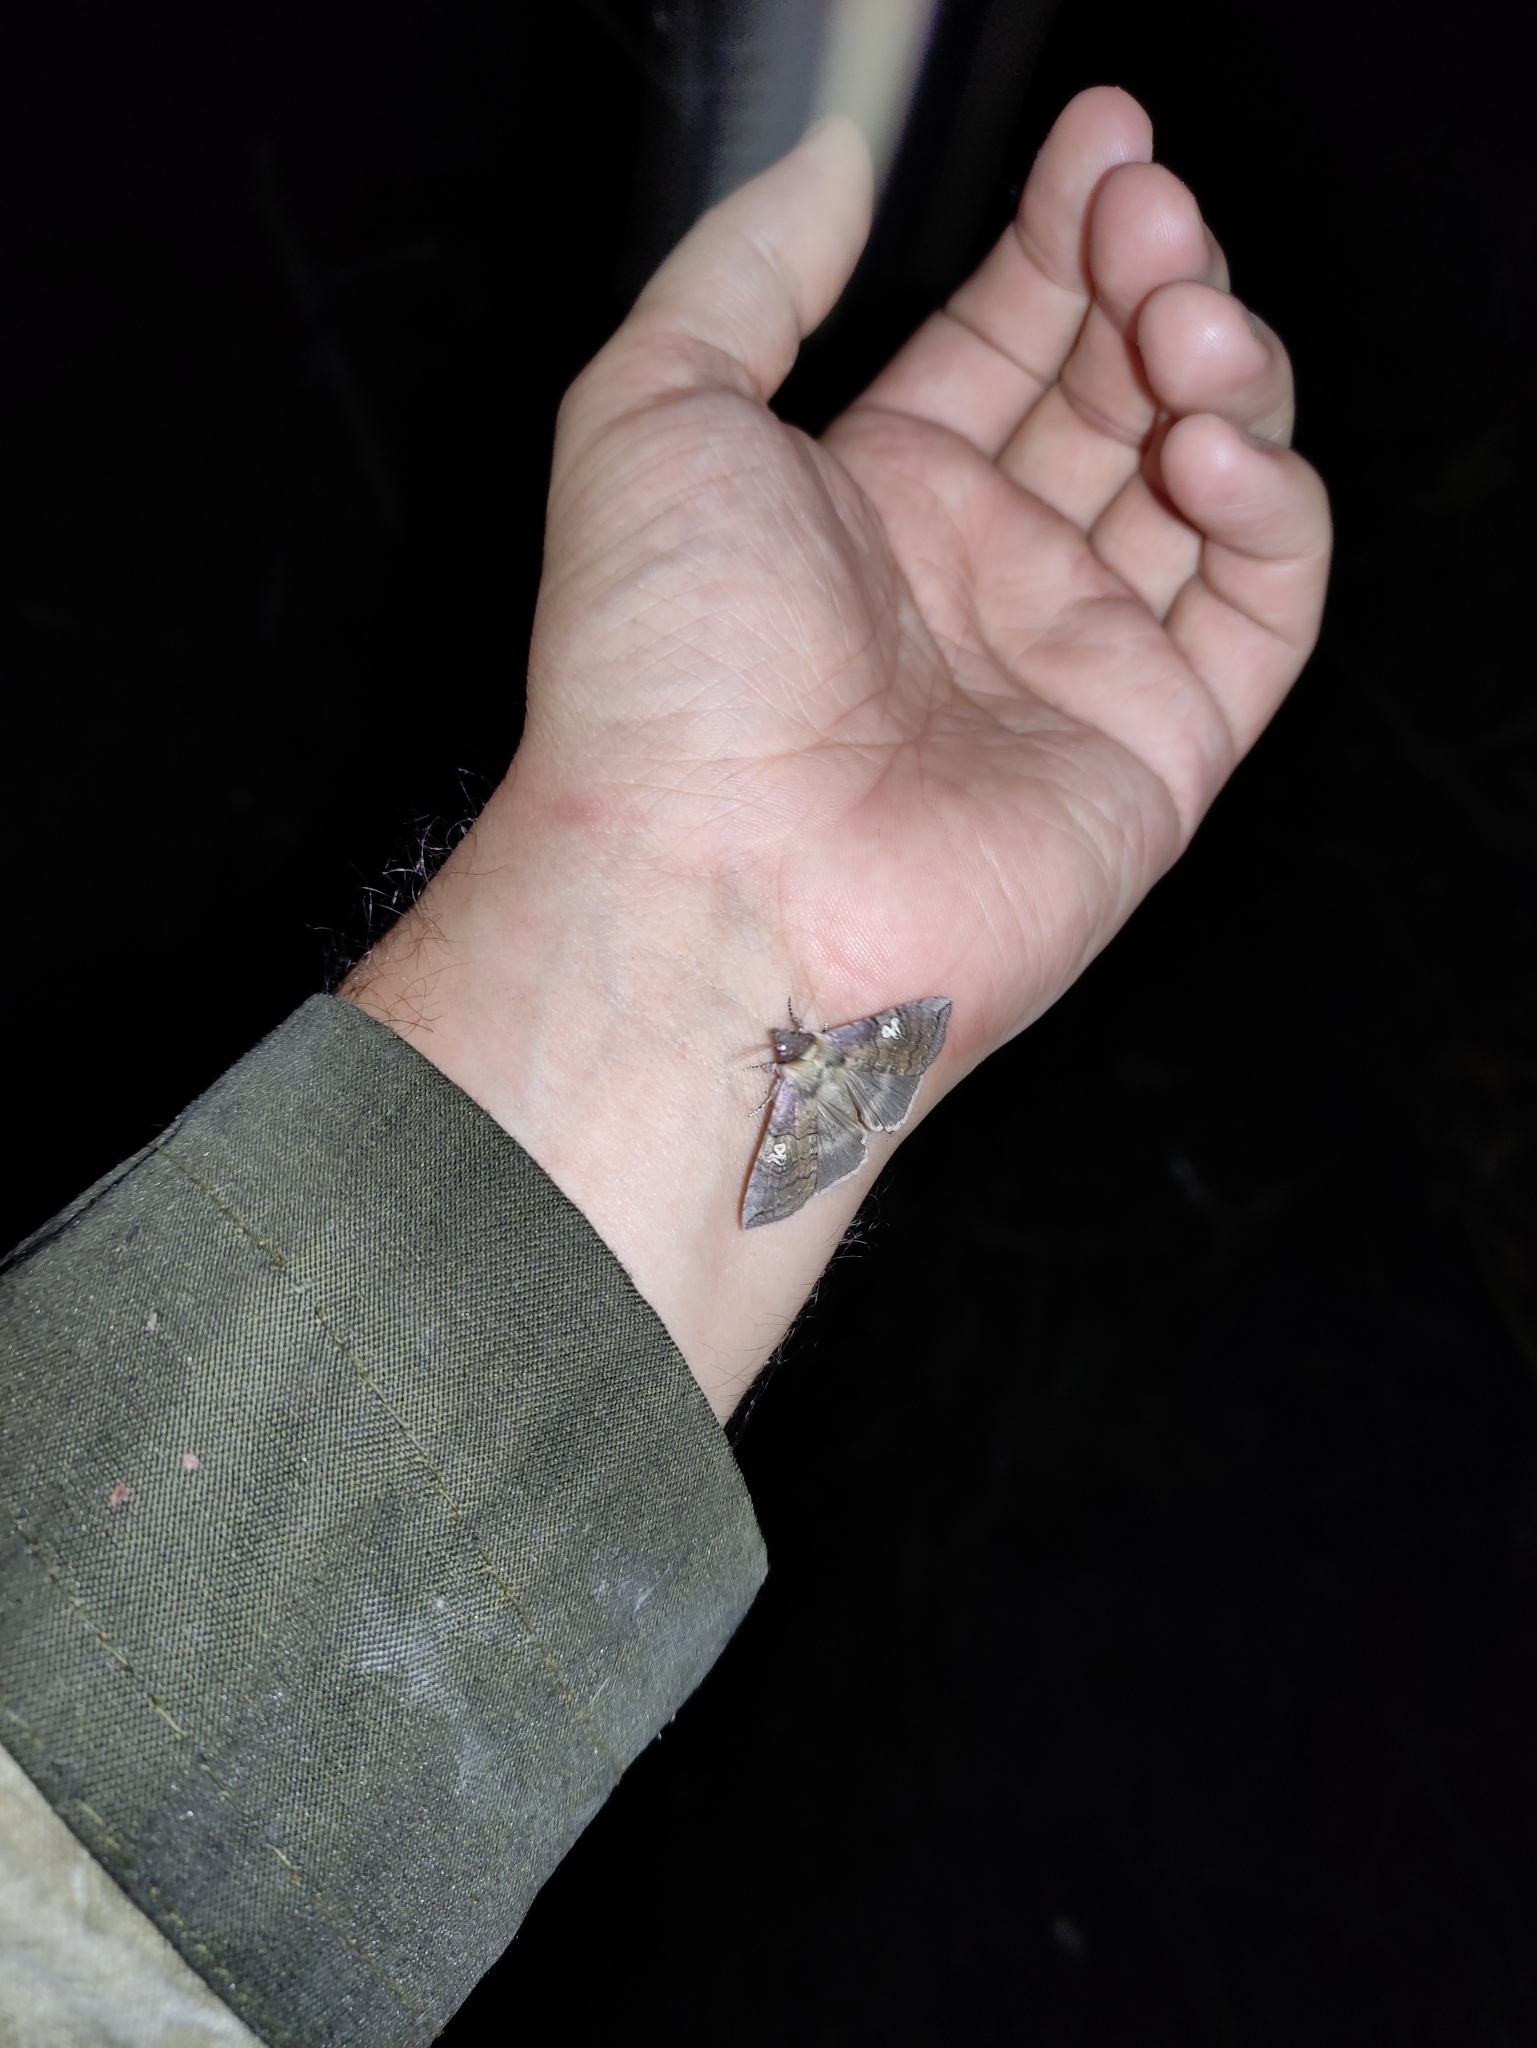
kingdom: Animalia
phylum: Arthropoda
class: Insecta
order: Lepidoptera
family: Drepanidae
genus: Tethea
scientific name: Tethea ocularis
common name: Figure of eighty
